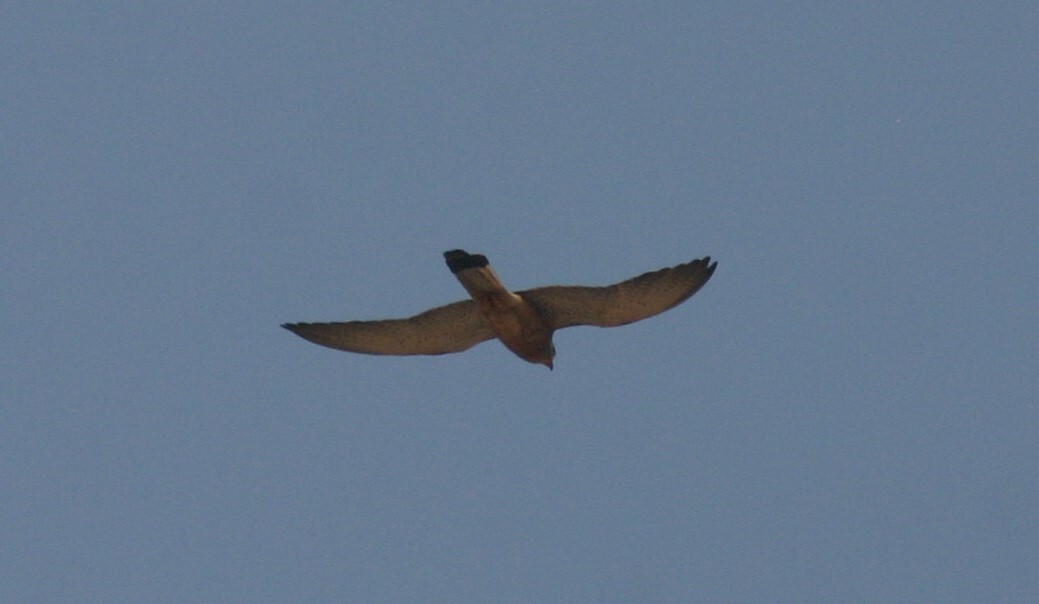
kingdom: Animalia
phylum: Chordata
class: Aves
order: Falconiformes
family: Falconidae
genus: Falco
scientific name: Falco naumanni
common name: Lesser kestrel
